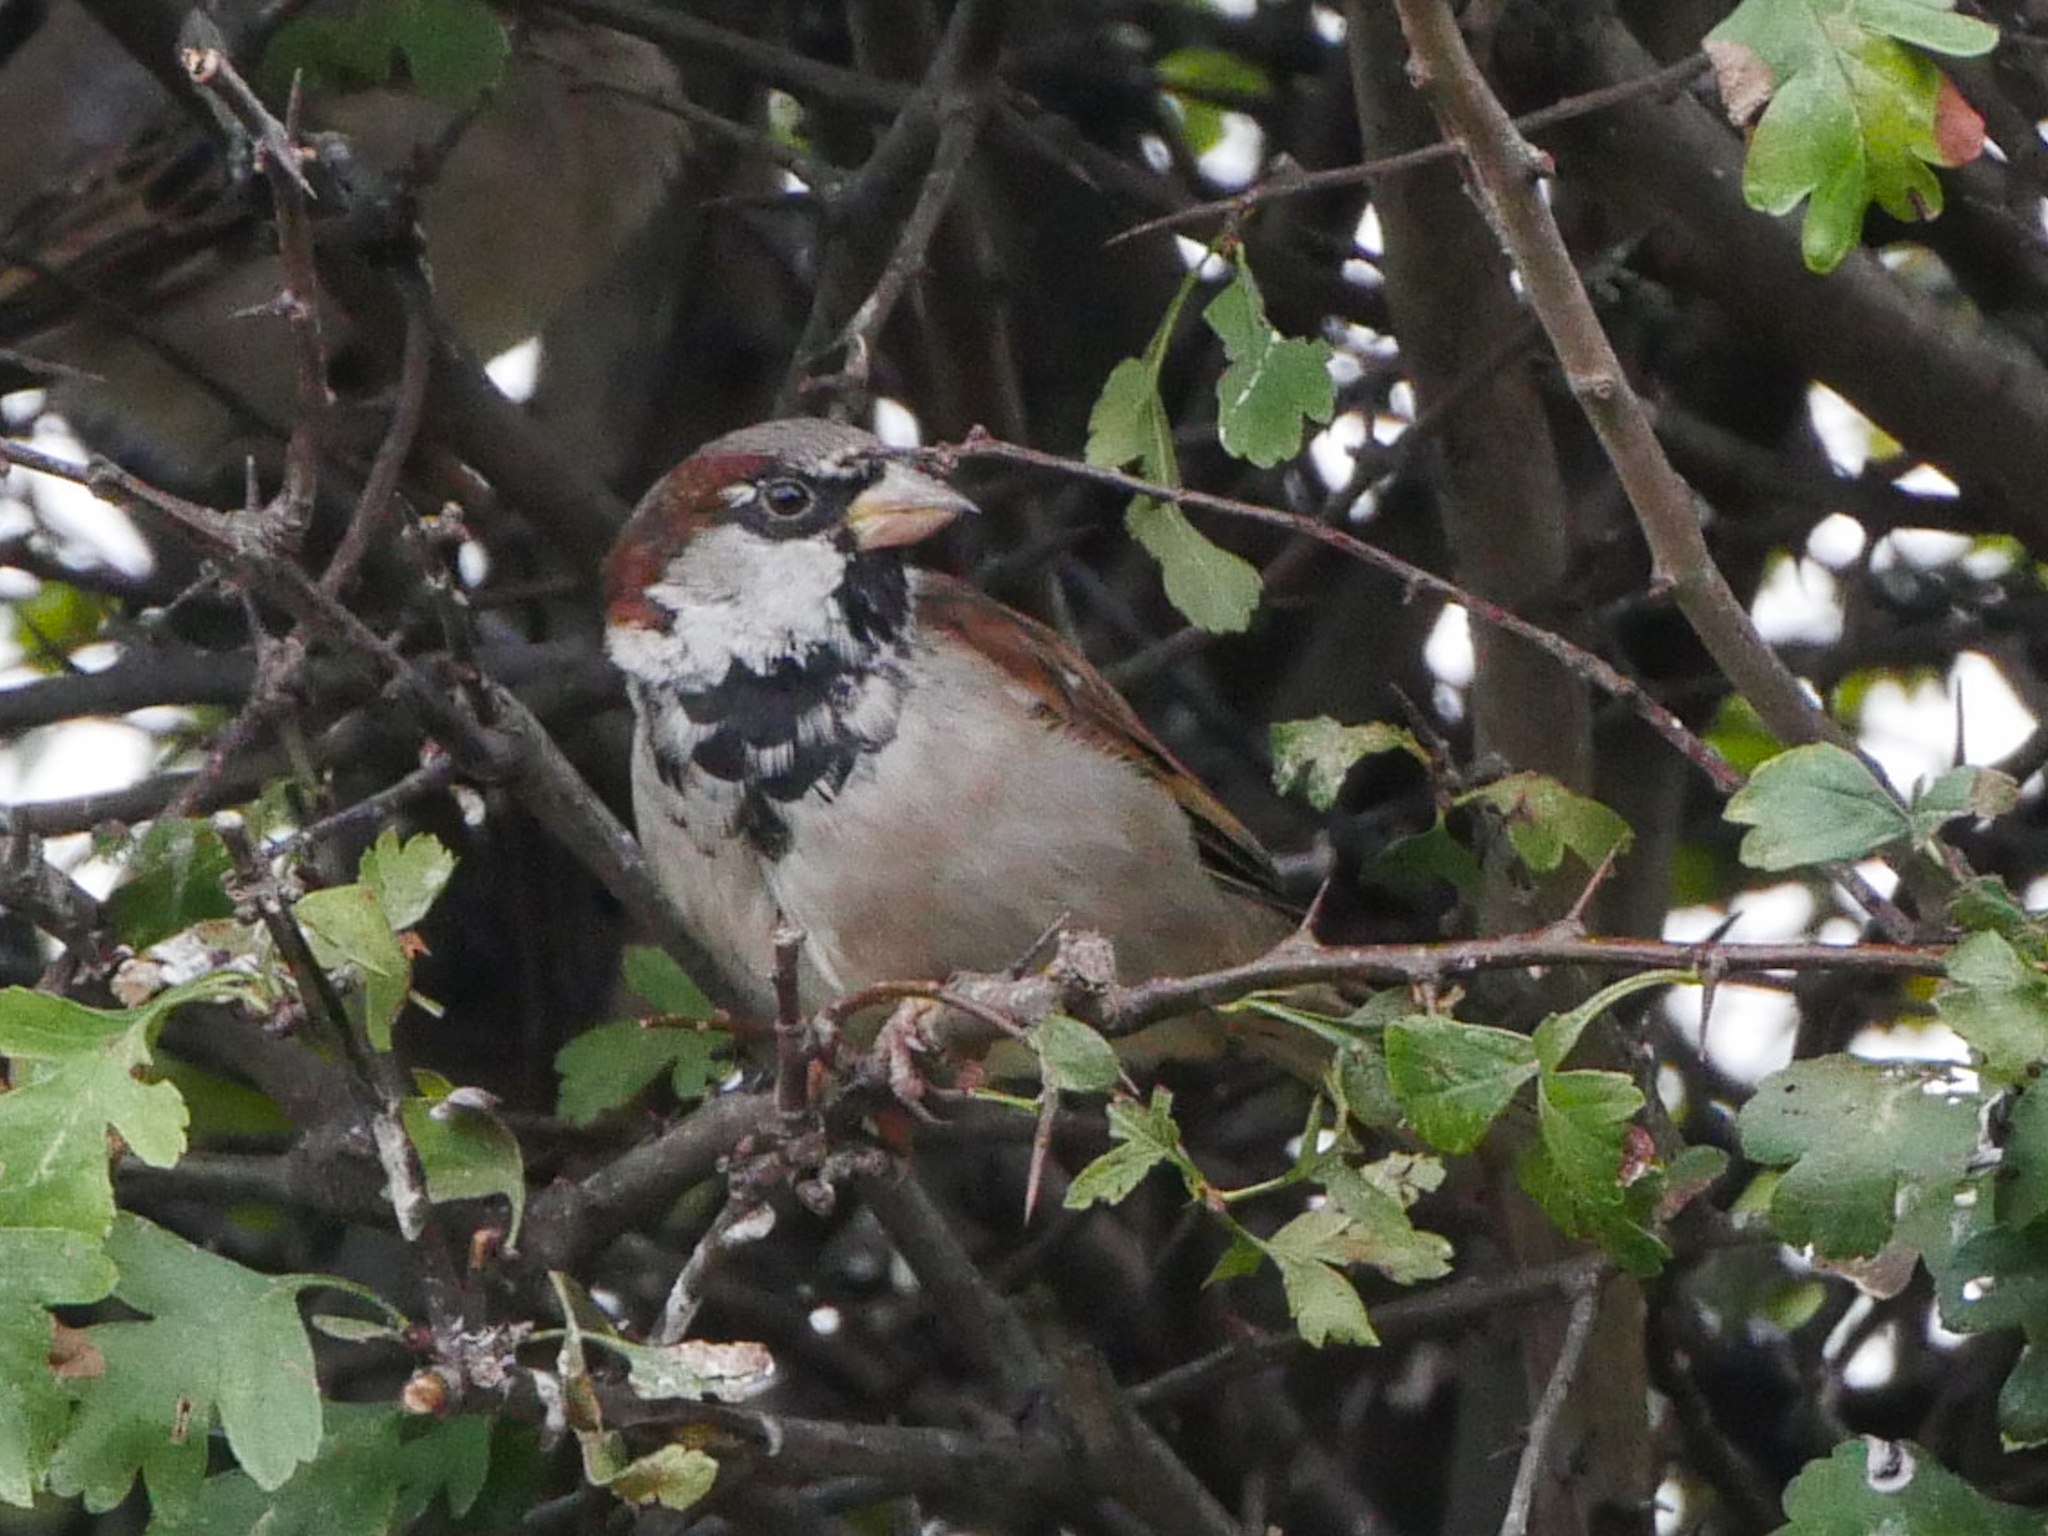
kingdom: Animalia
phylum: Chordata
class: Aves
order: Passeriformes
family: Passeridae
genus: Passer
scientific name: Passer domesticus
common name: House sparrow
